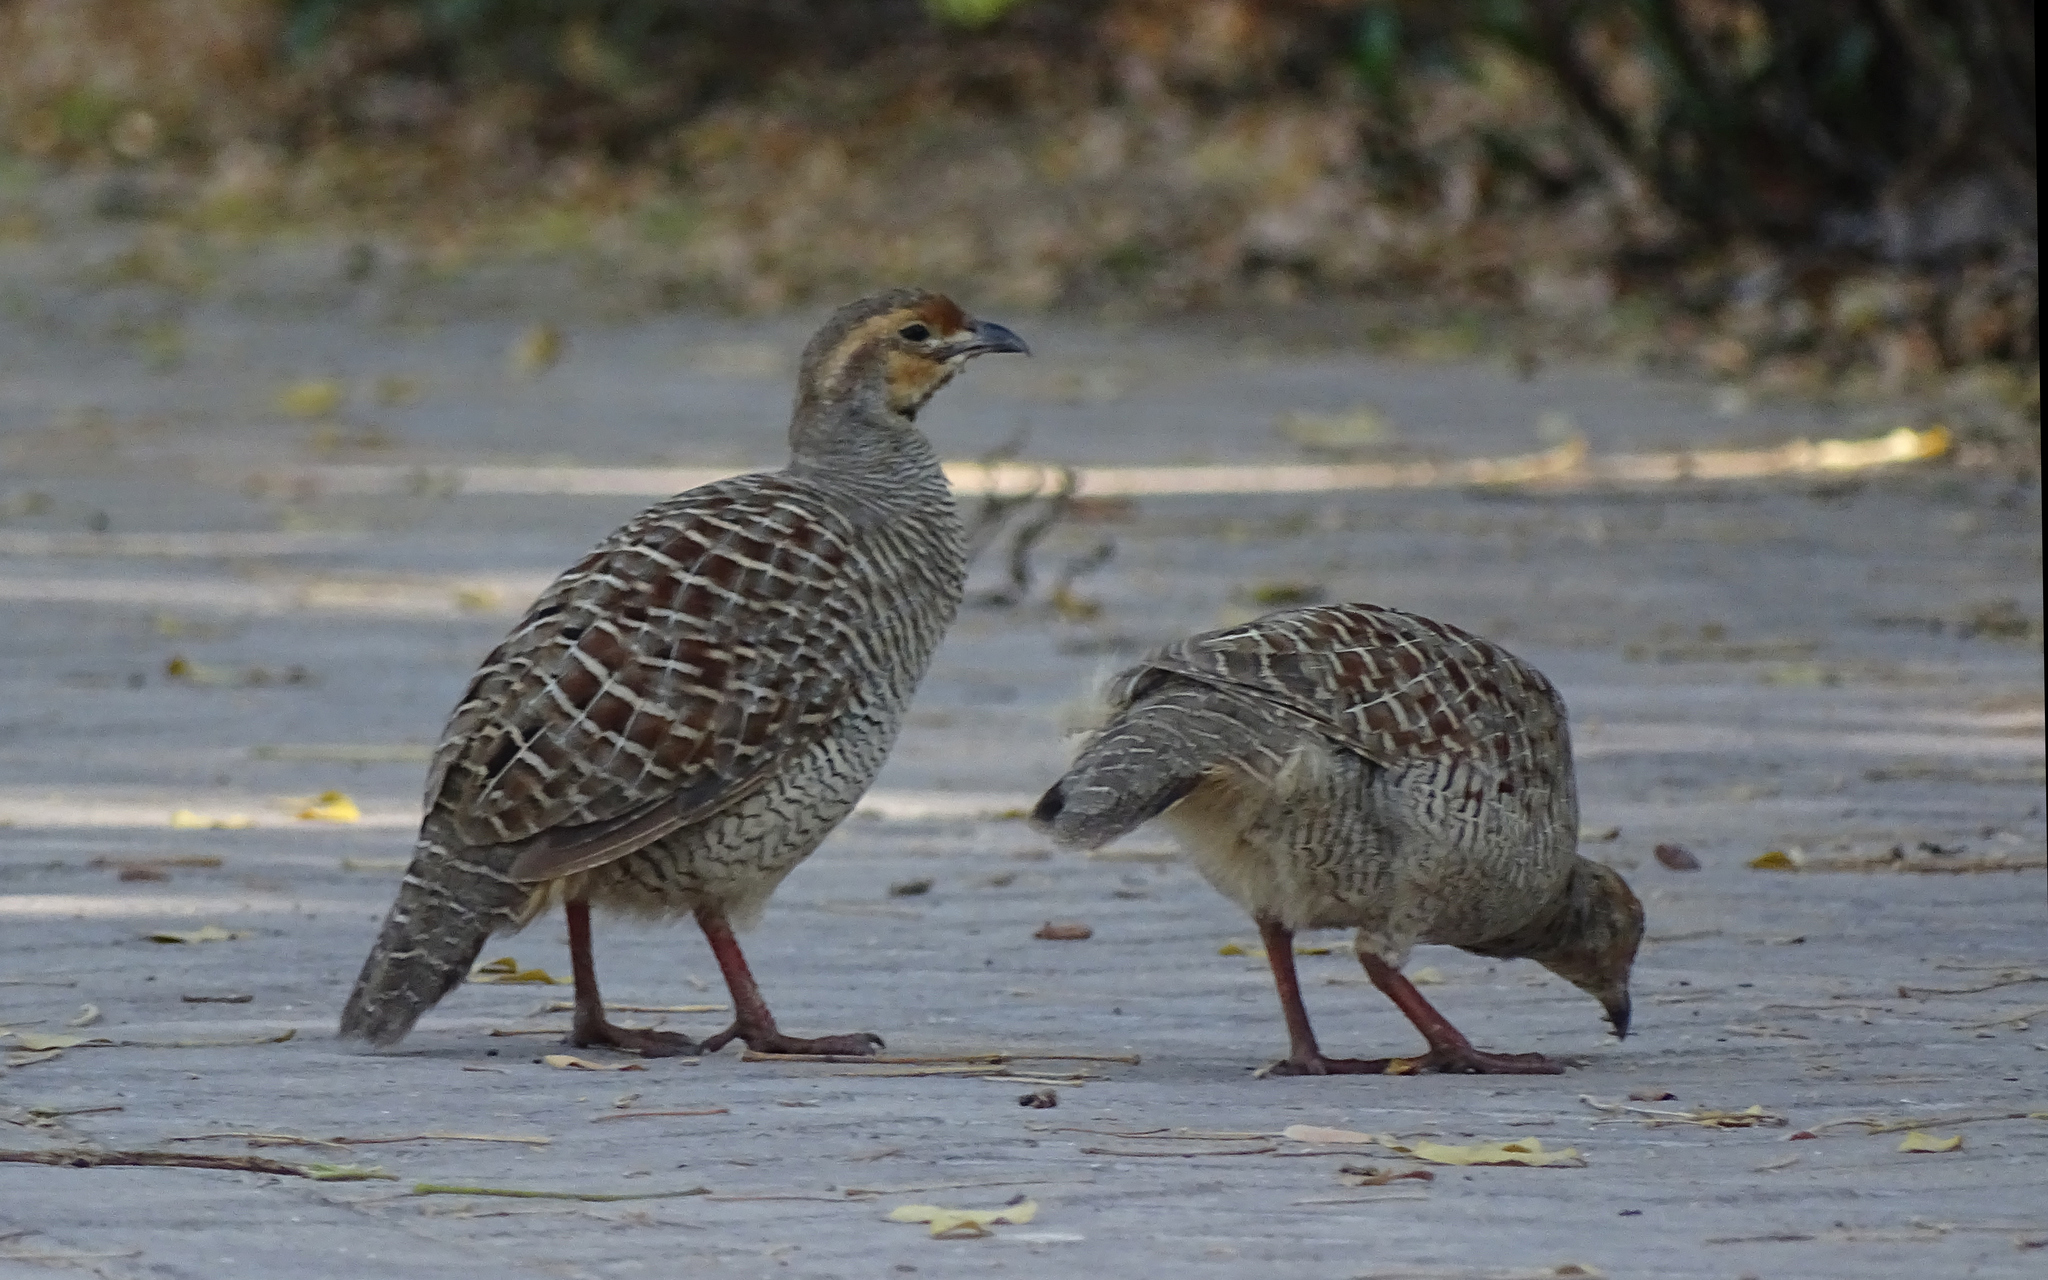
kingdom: Animalia
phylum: Chordata
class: Aves
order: Galliformes
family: Phasianidae
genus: Ortygornis
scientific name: Ortygornis pondicerianus
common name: Grey francolin
